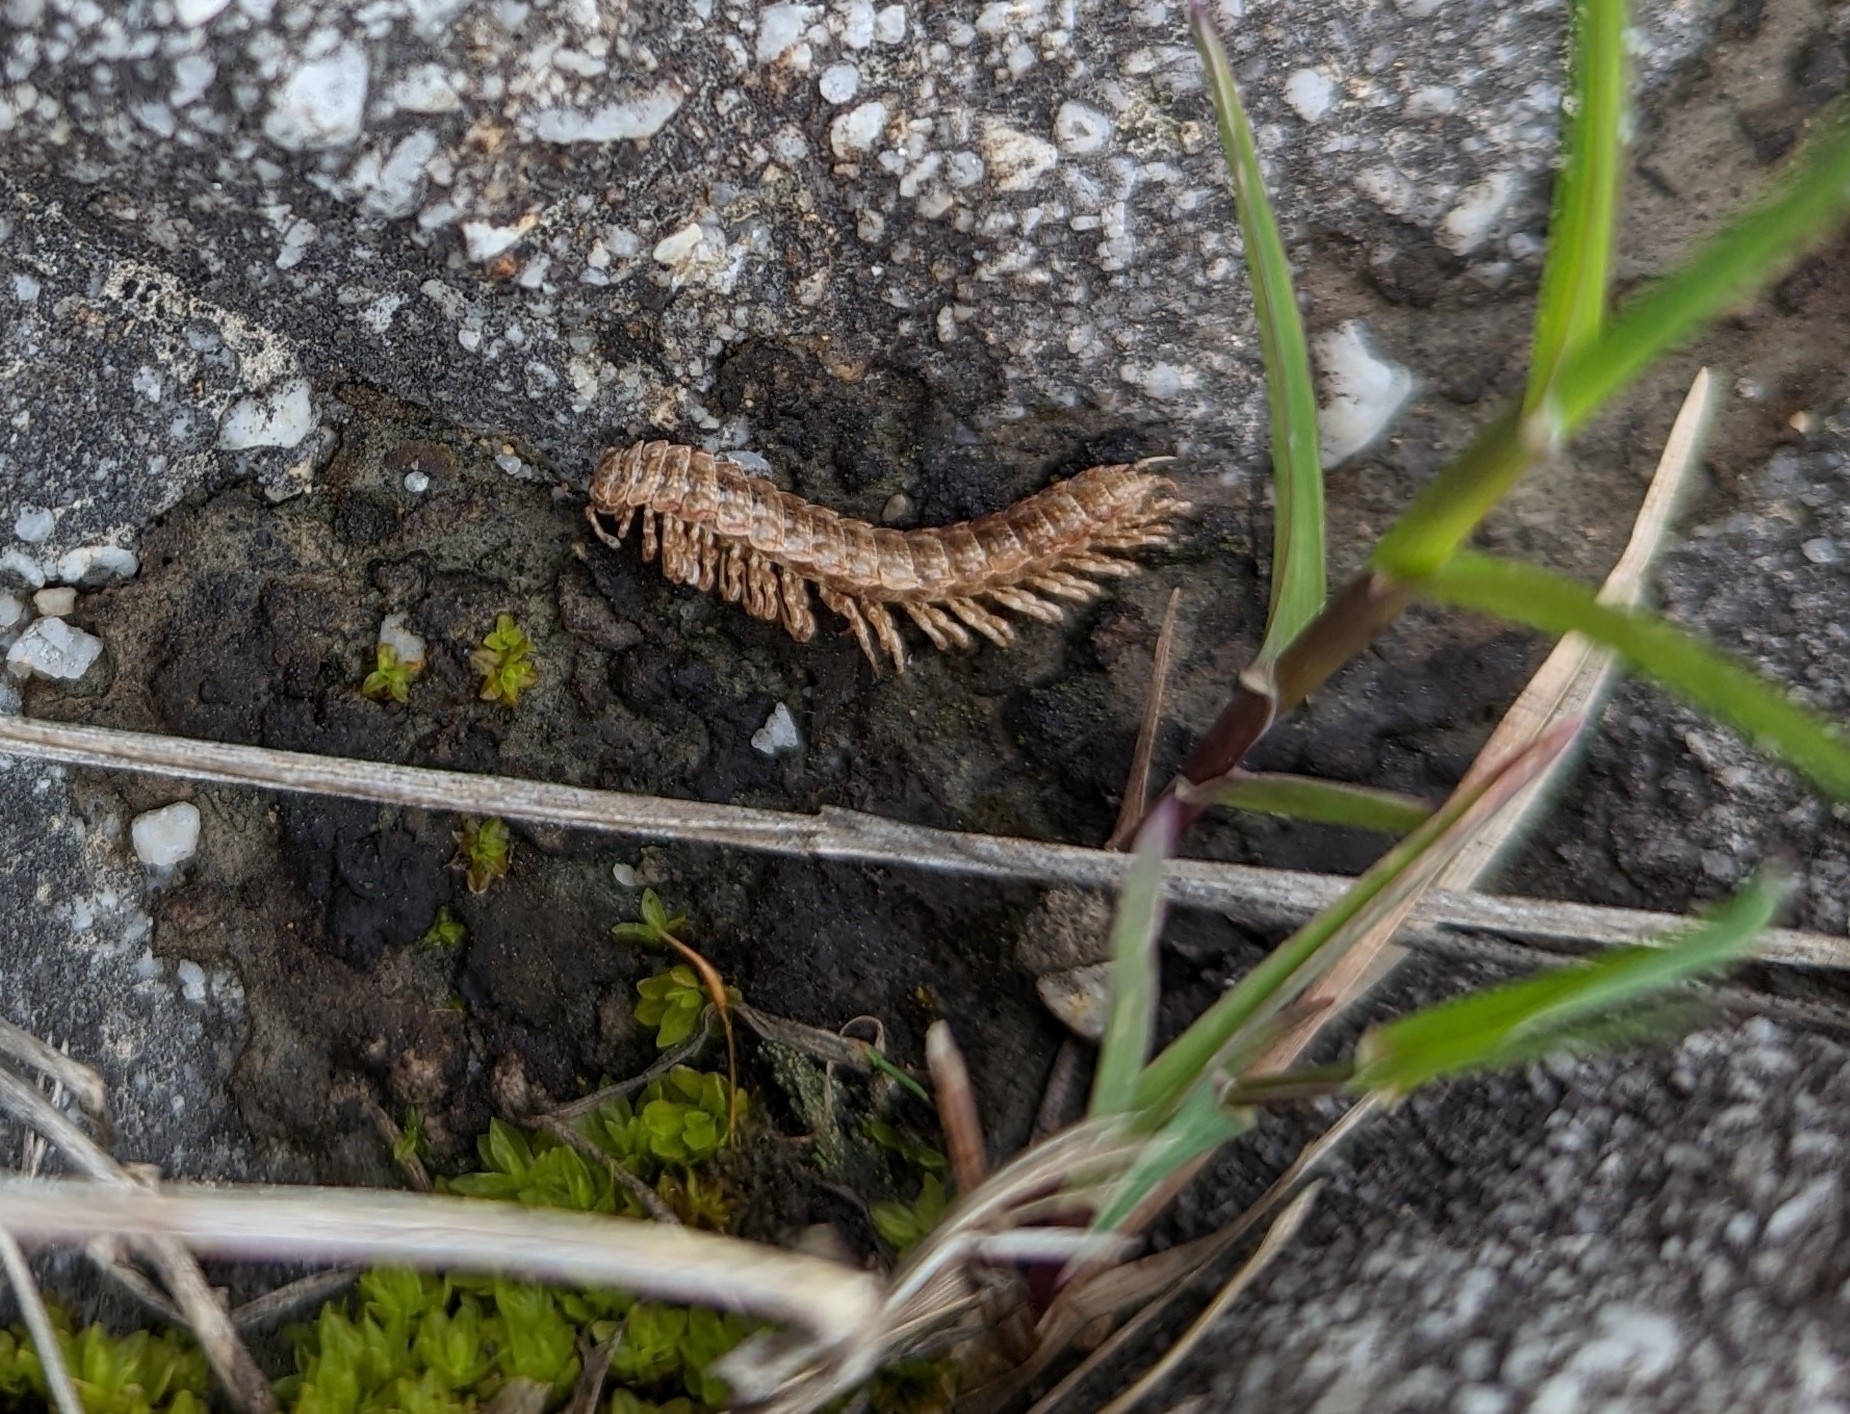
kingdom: Animalia
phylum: Arthropoda
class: Diplopoda
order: Polydesmida
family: Polydesmidae
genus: Pseudopolydesmus
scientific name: Pseudopolydesmus serratus
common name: Common pink flat-back millipede
